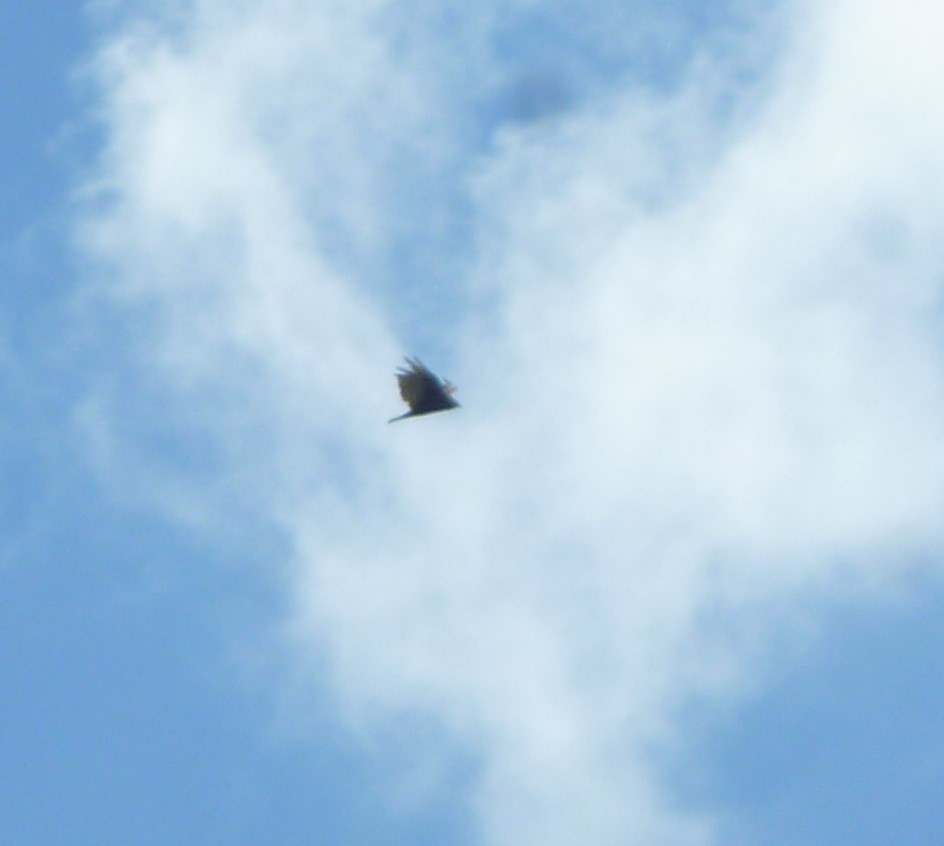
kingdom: Animalia
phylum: Chordata
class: Aves
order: Accipitriformes
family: Cathartidae
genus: Cathartes
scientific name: Cathartes aura
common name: Turkey vulture
